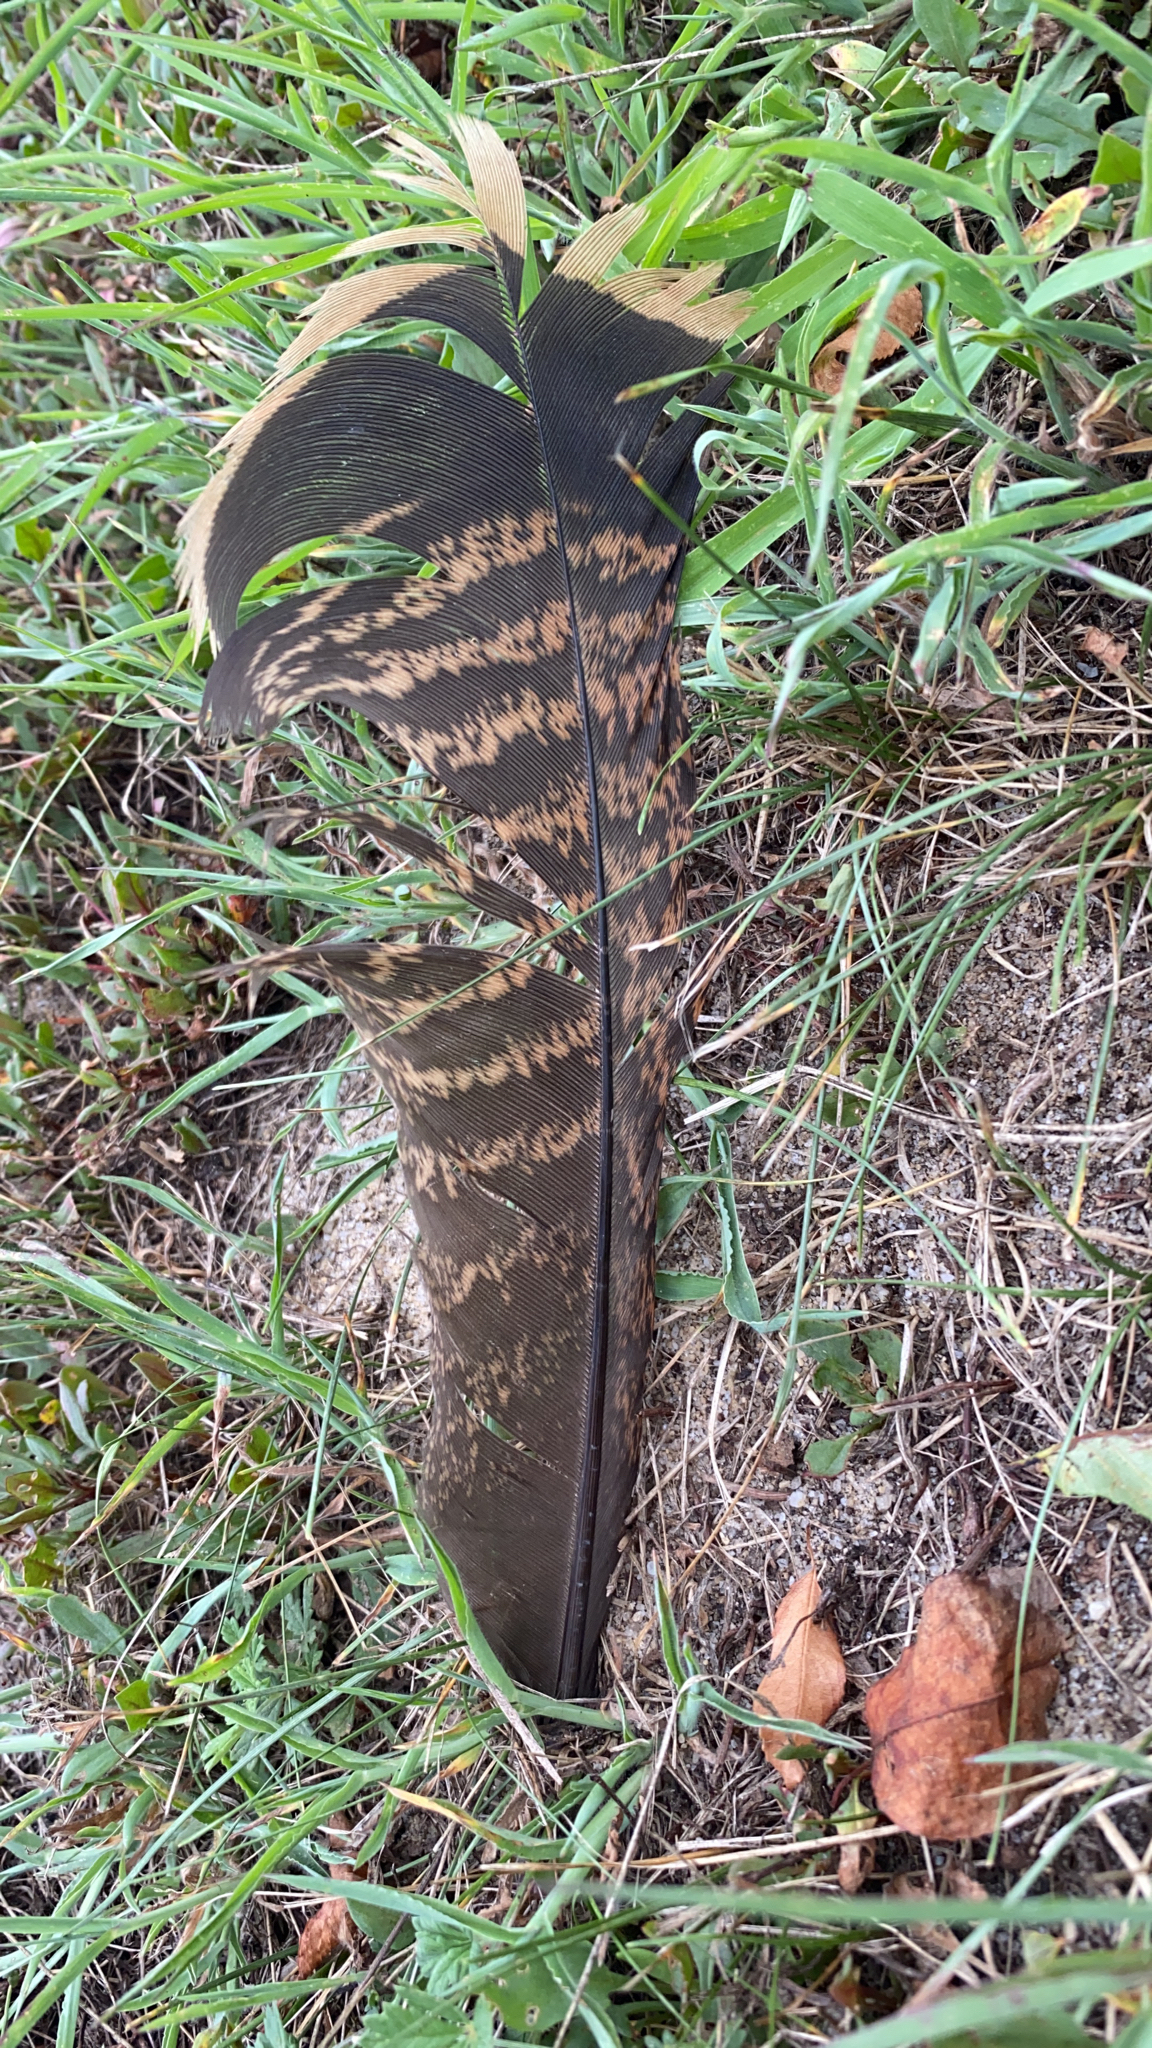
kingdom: Animalia
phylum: Chordata
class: Aves
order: Galliformes
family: Phasianidae
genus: Meleagris
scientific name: Meleagris gallopavo
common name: Wild turkey
